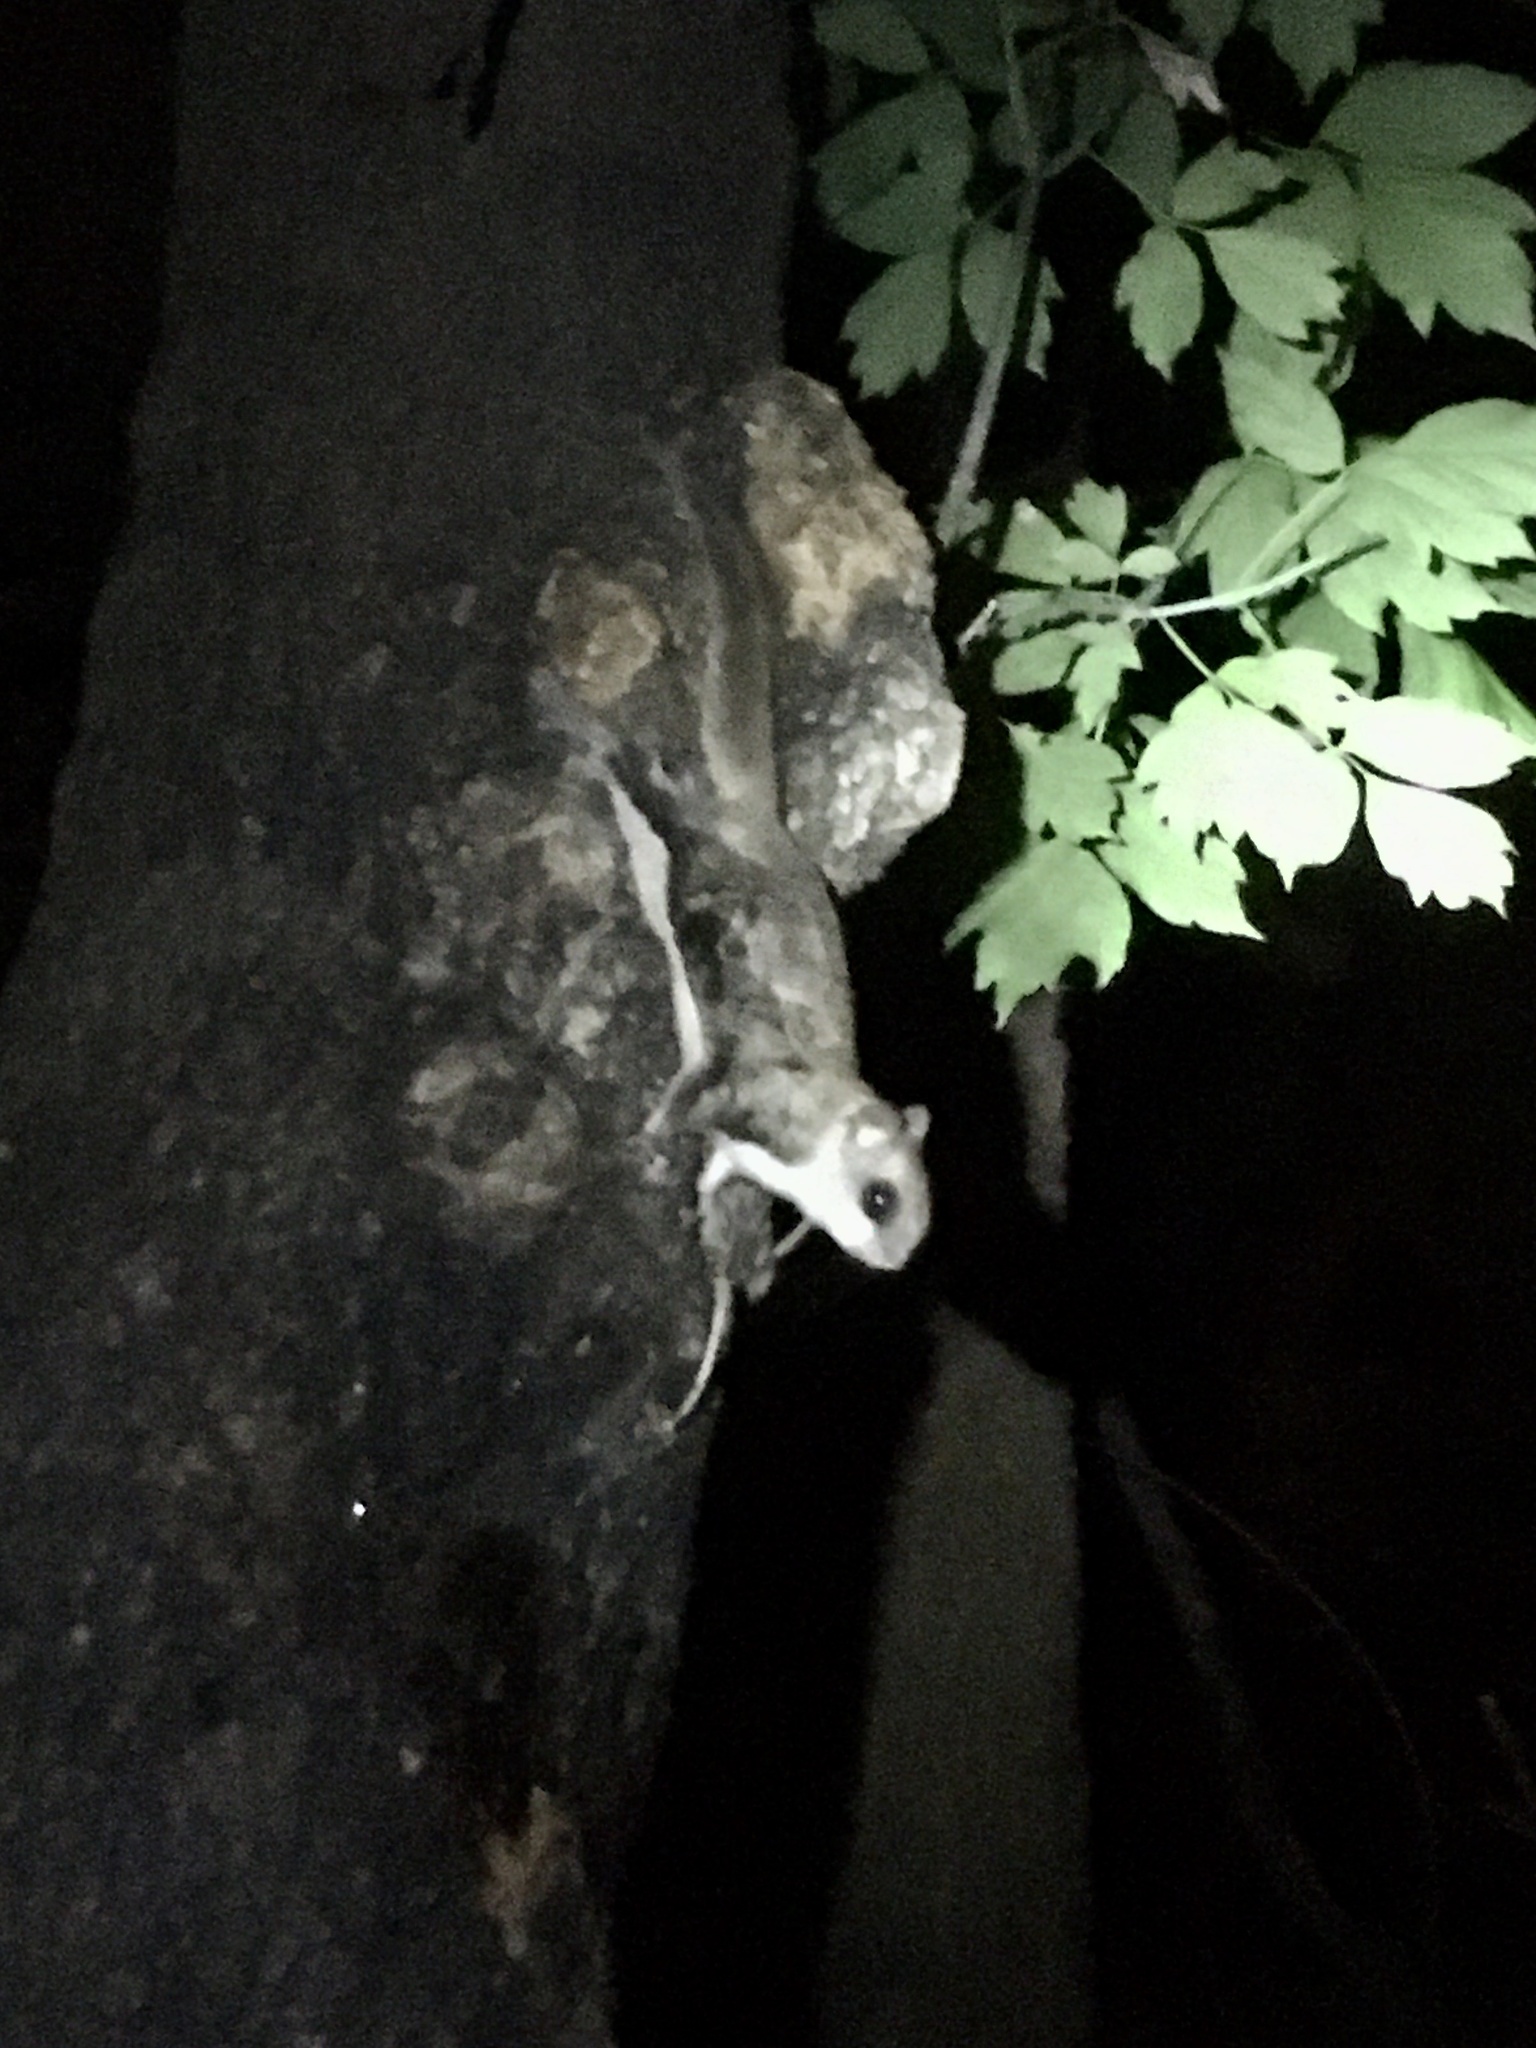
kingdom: Animalia
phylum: Chordata
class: Mammalia
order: Rodentia
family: Sciuridae
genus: Glaucomys
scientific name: Glaucomys volans
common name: Southern flying squirrel
